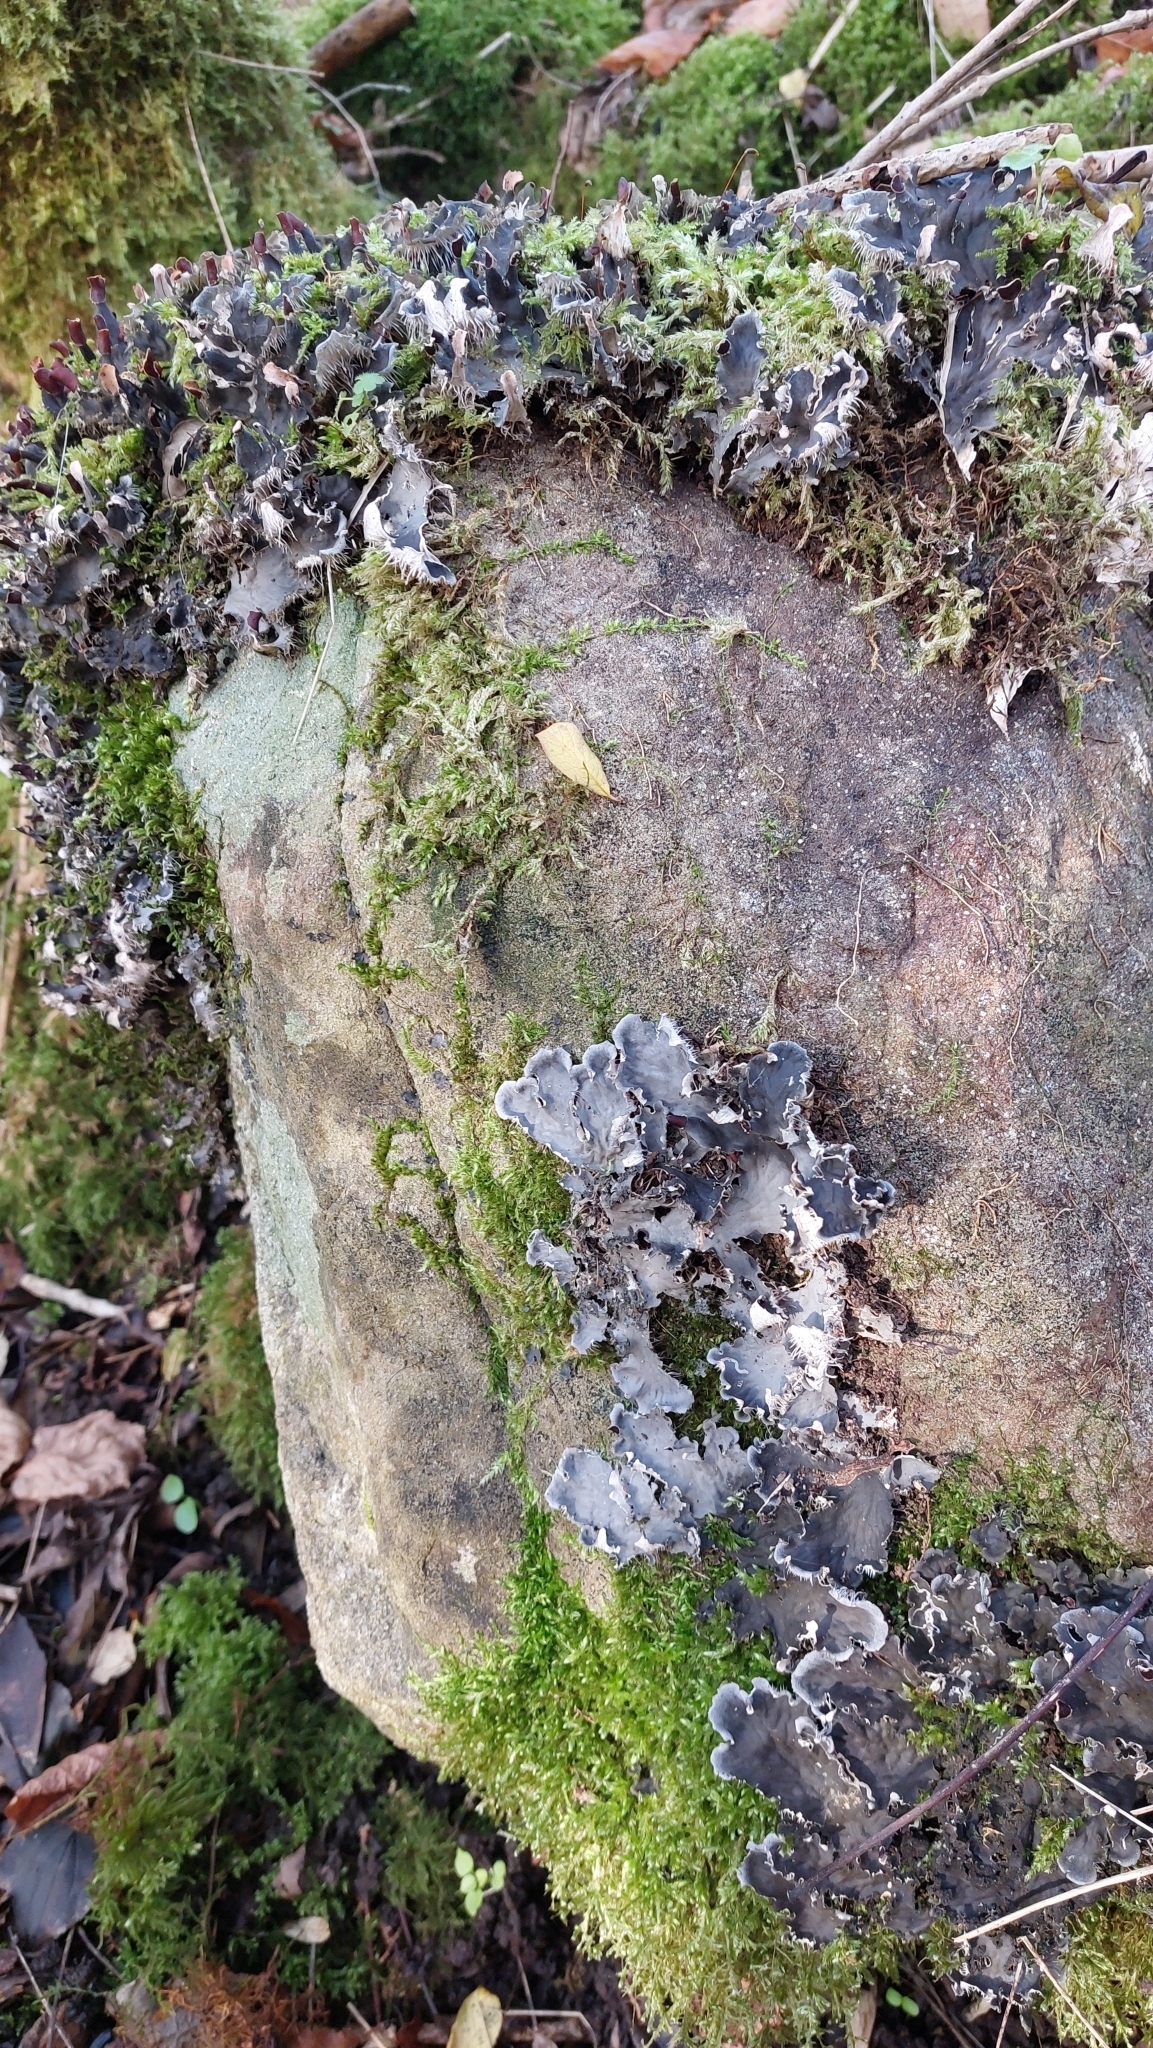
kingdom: Fungi
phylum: Ascomycota
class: Lecanoromycetes
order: Peltigerales
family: Peltigeraceae
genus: Peltigera
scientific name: Peltigera praetextata
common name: Scaly dog-lichen
